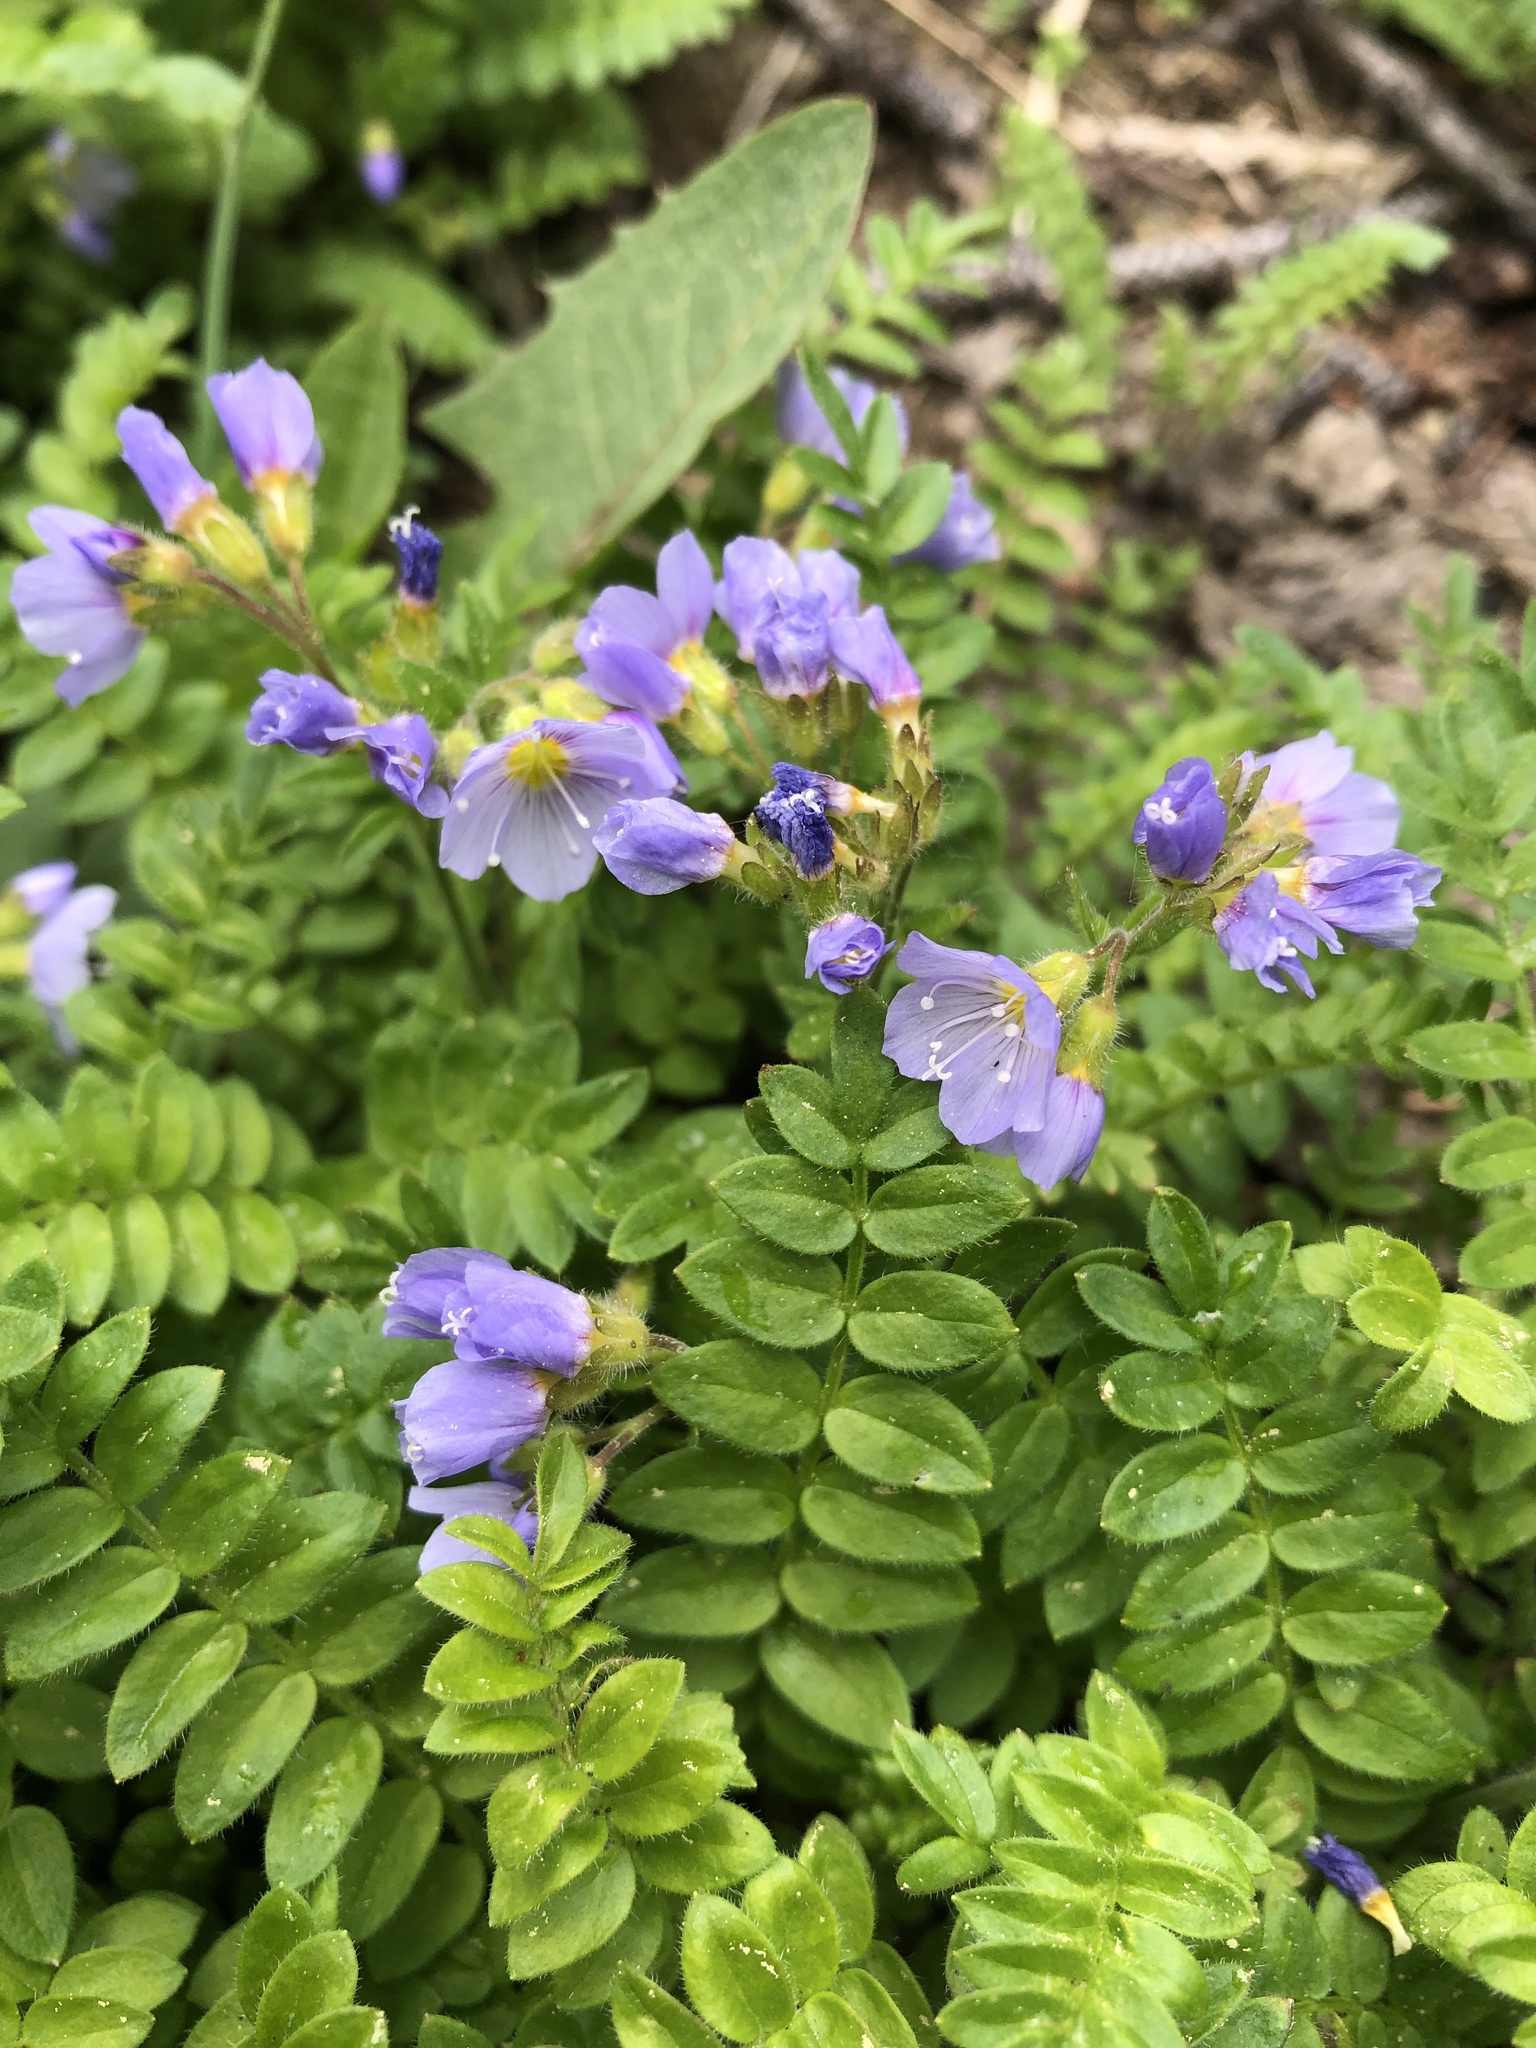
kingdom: Plantae
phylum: Tracheophyta
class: Magnoliopsida
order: Ericales
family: Polemoniaceae
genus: Polemonium
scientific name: Polemonium pulcherrimum
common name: Short jacob's-ladder
